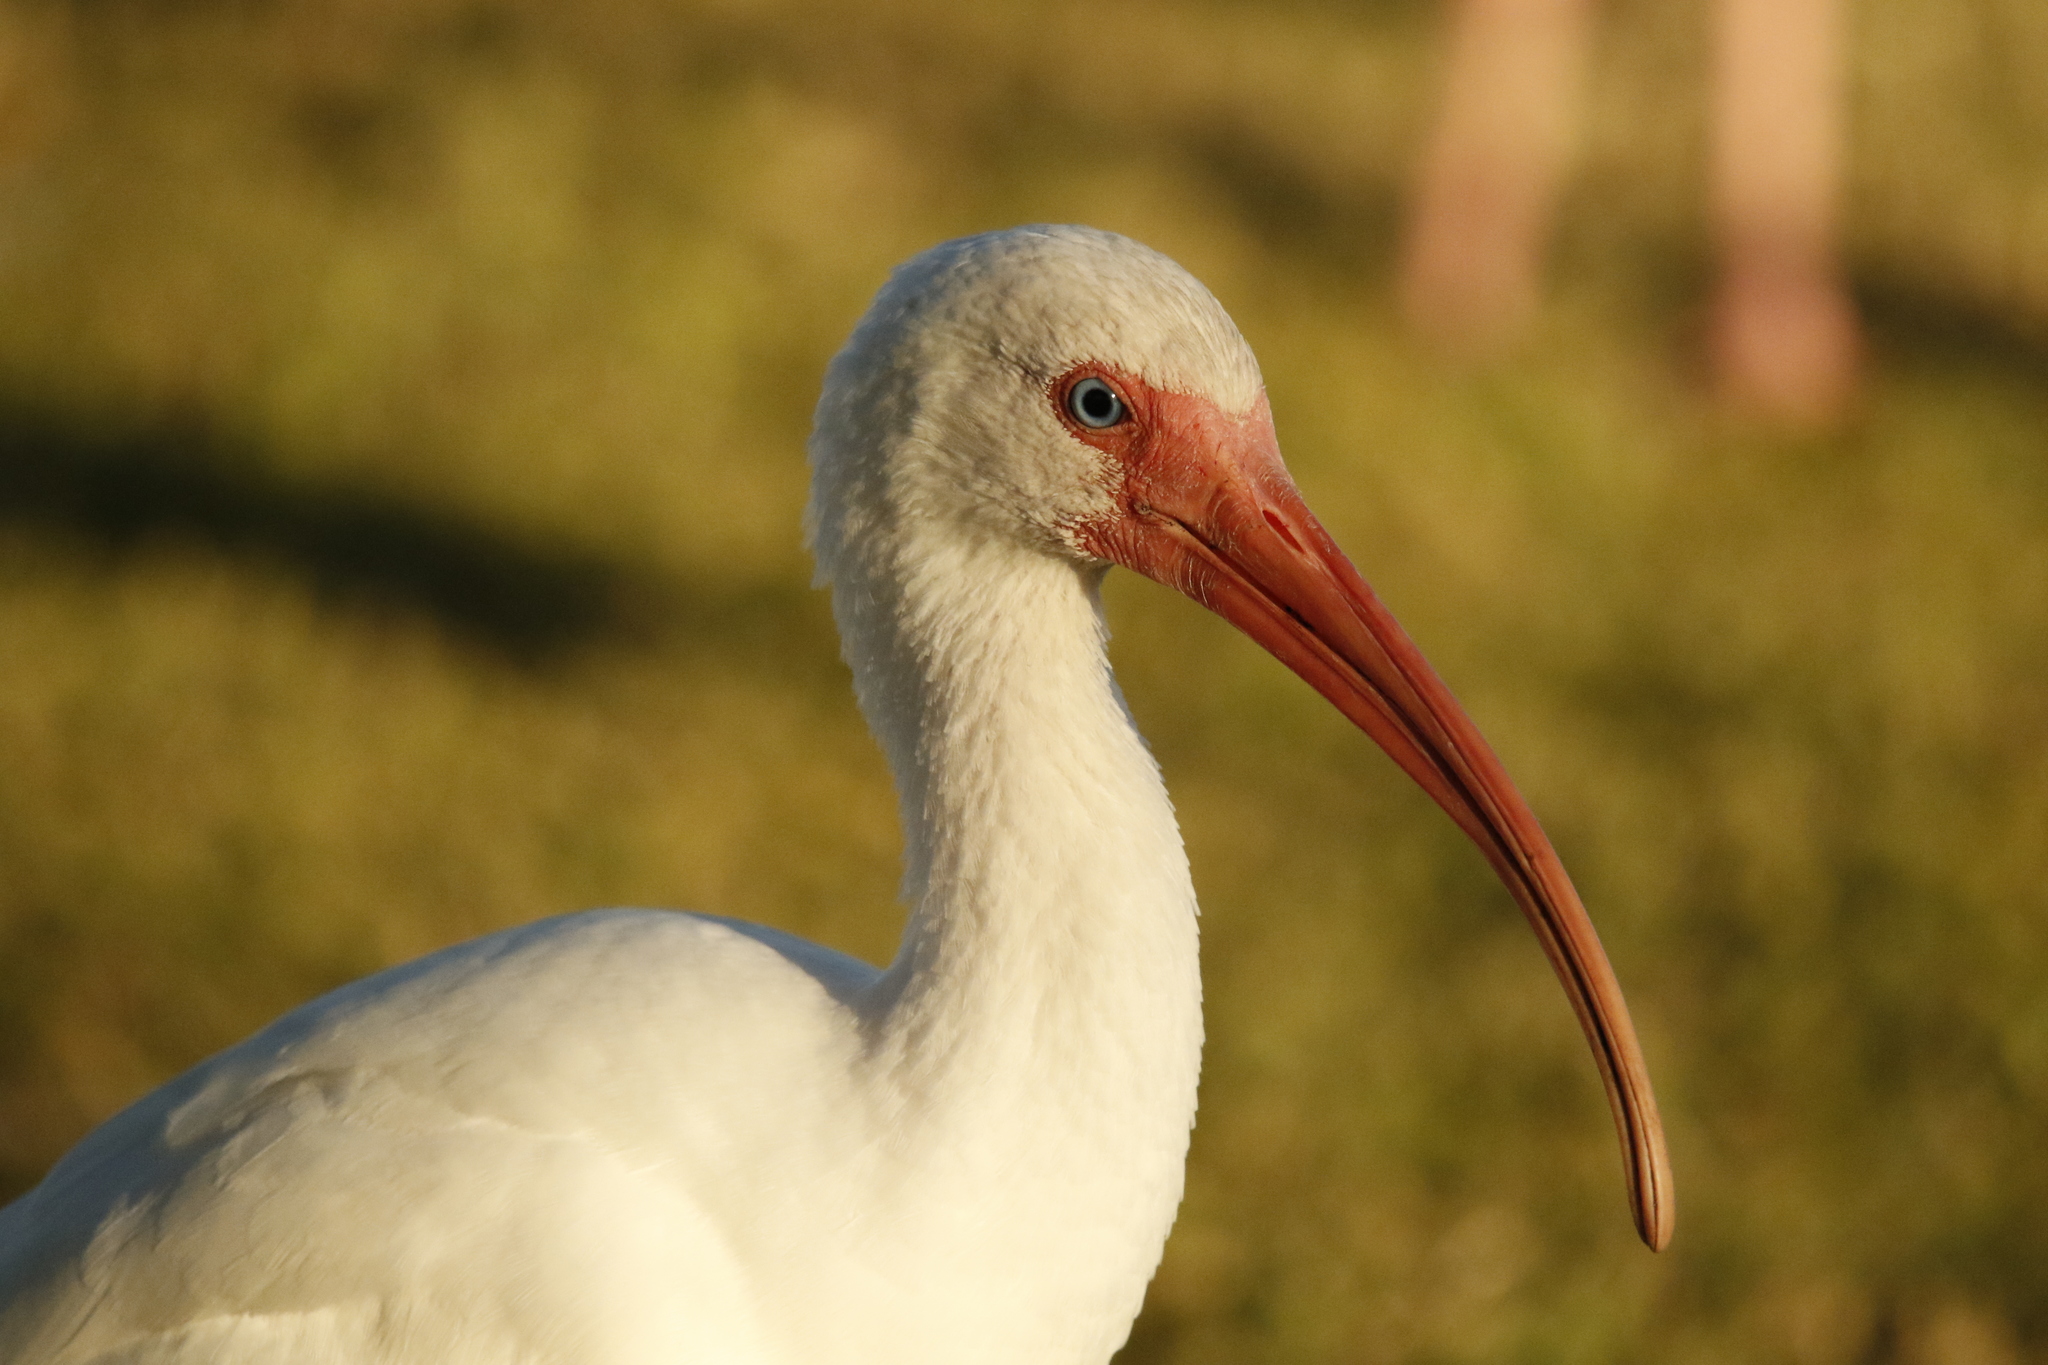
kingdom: Animalia
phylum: Chordata
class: Aves
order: Pelecaniformes
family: Threskiornithidae
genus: Eudocimus
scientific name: Eudocimus albus
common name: White ibis
